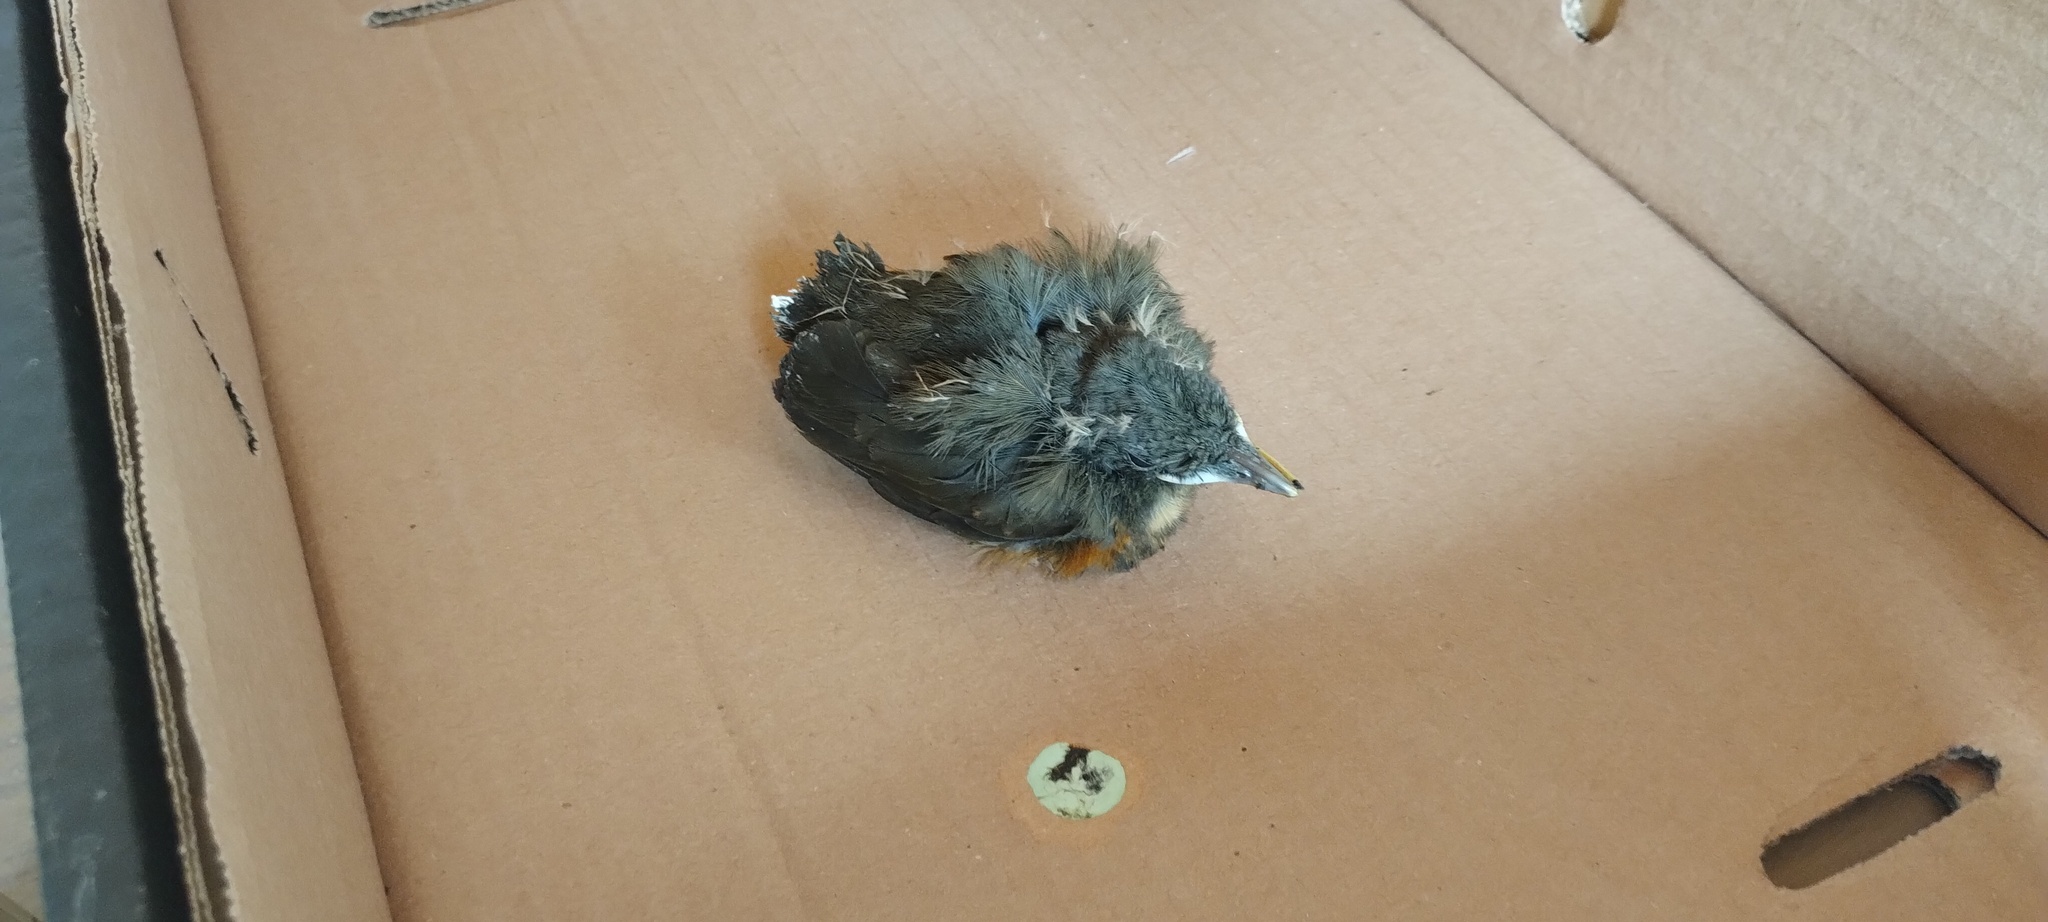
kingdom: Animalia
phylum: Chordata
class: Aves
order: Passeriformes
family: Turdidae
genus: Turdus
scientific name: Turdus rufiventris
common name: Rufous-bellied thrush
